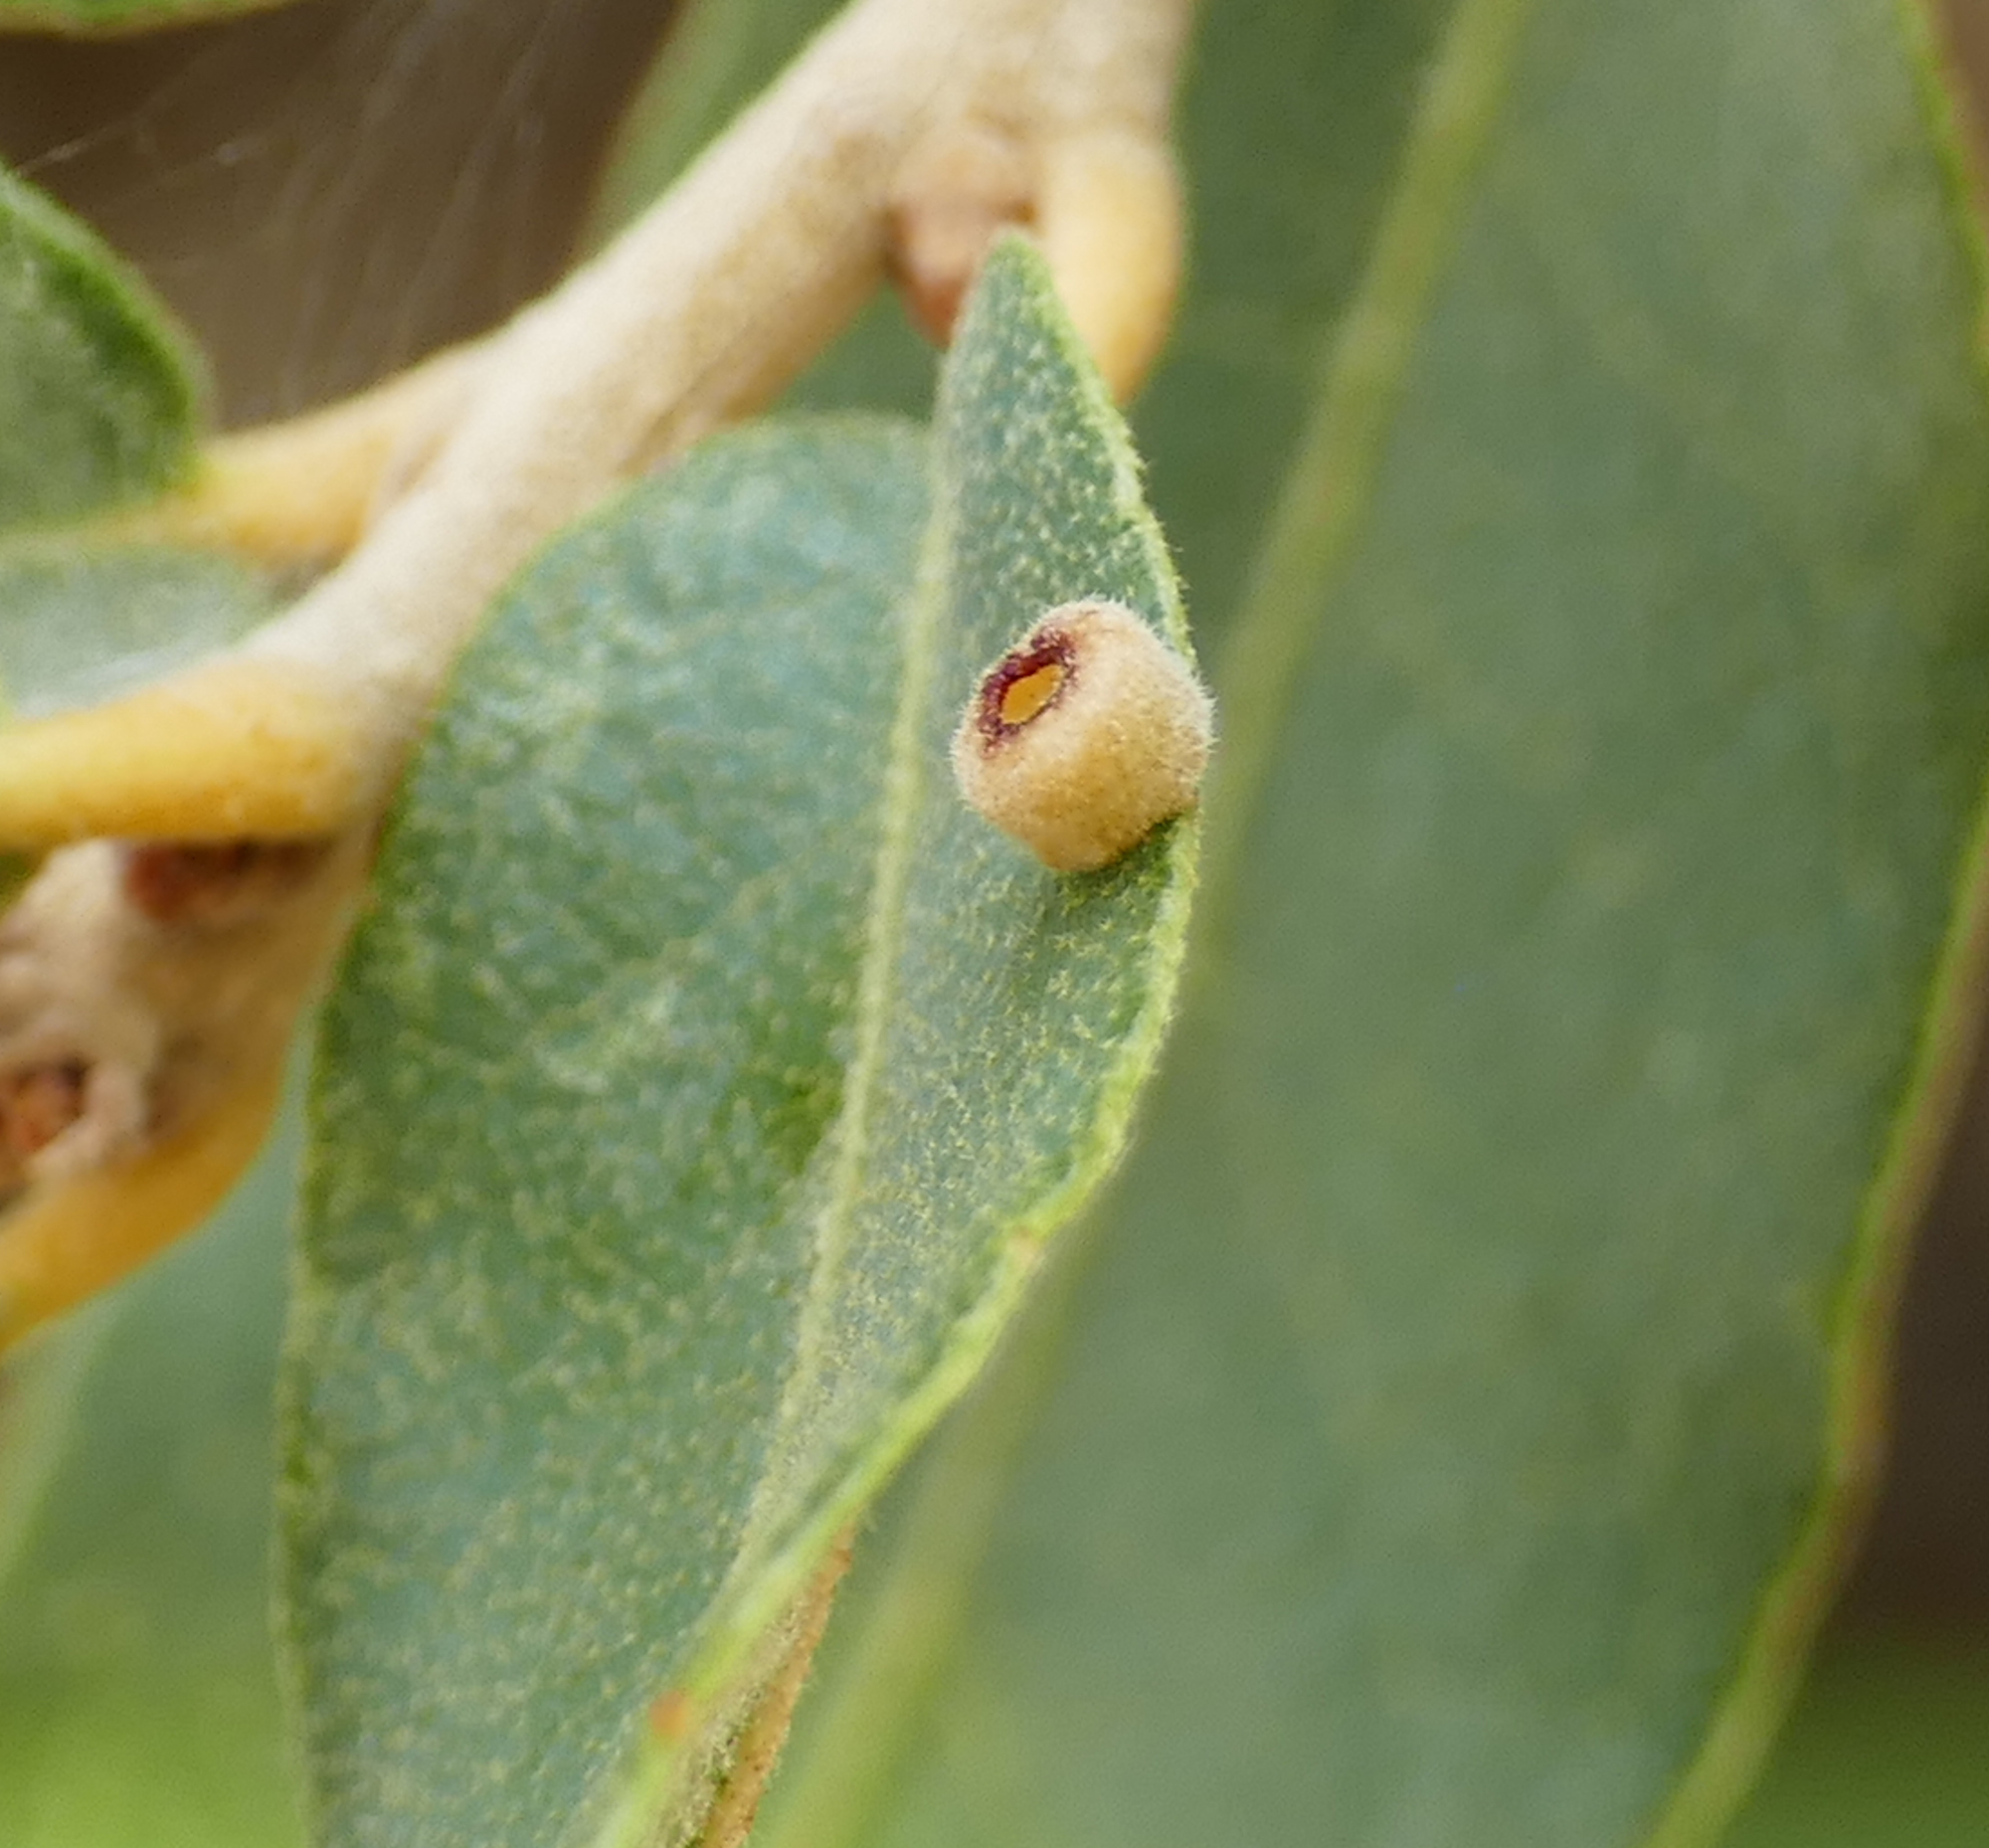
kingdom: Animalia
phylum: Arthropoda
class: Insecta
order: Hymenoptera
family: Cynipidae
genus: Phylloteras
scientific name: Phylloteras
